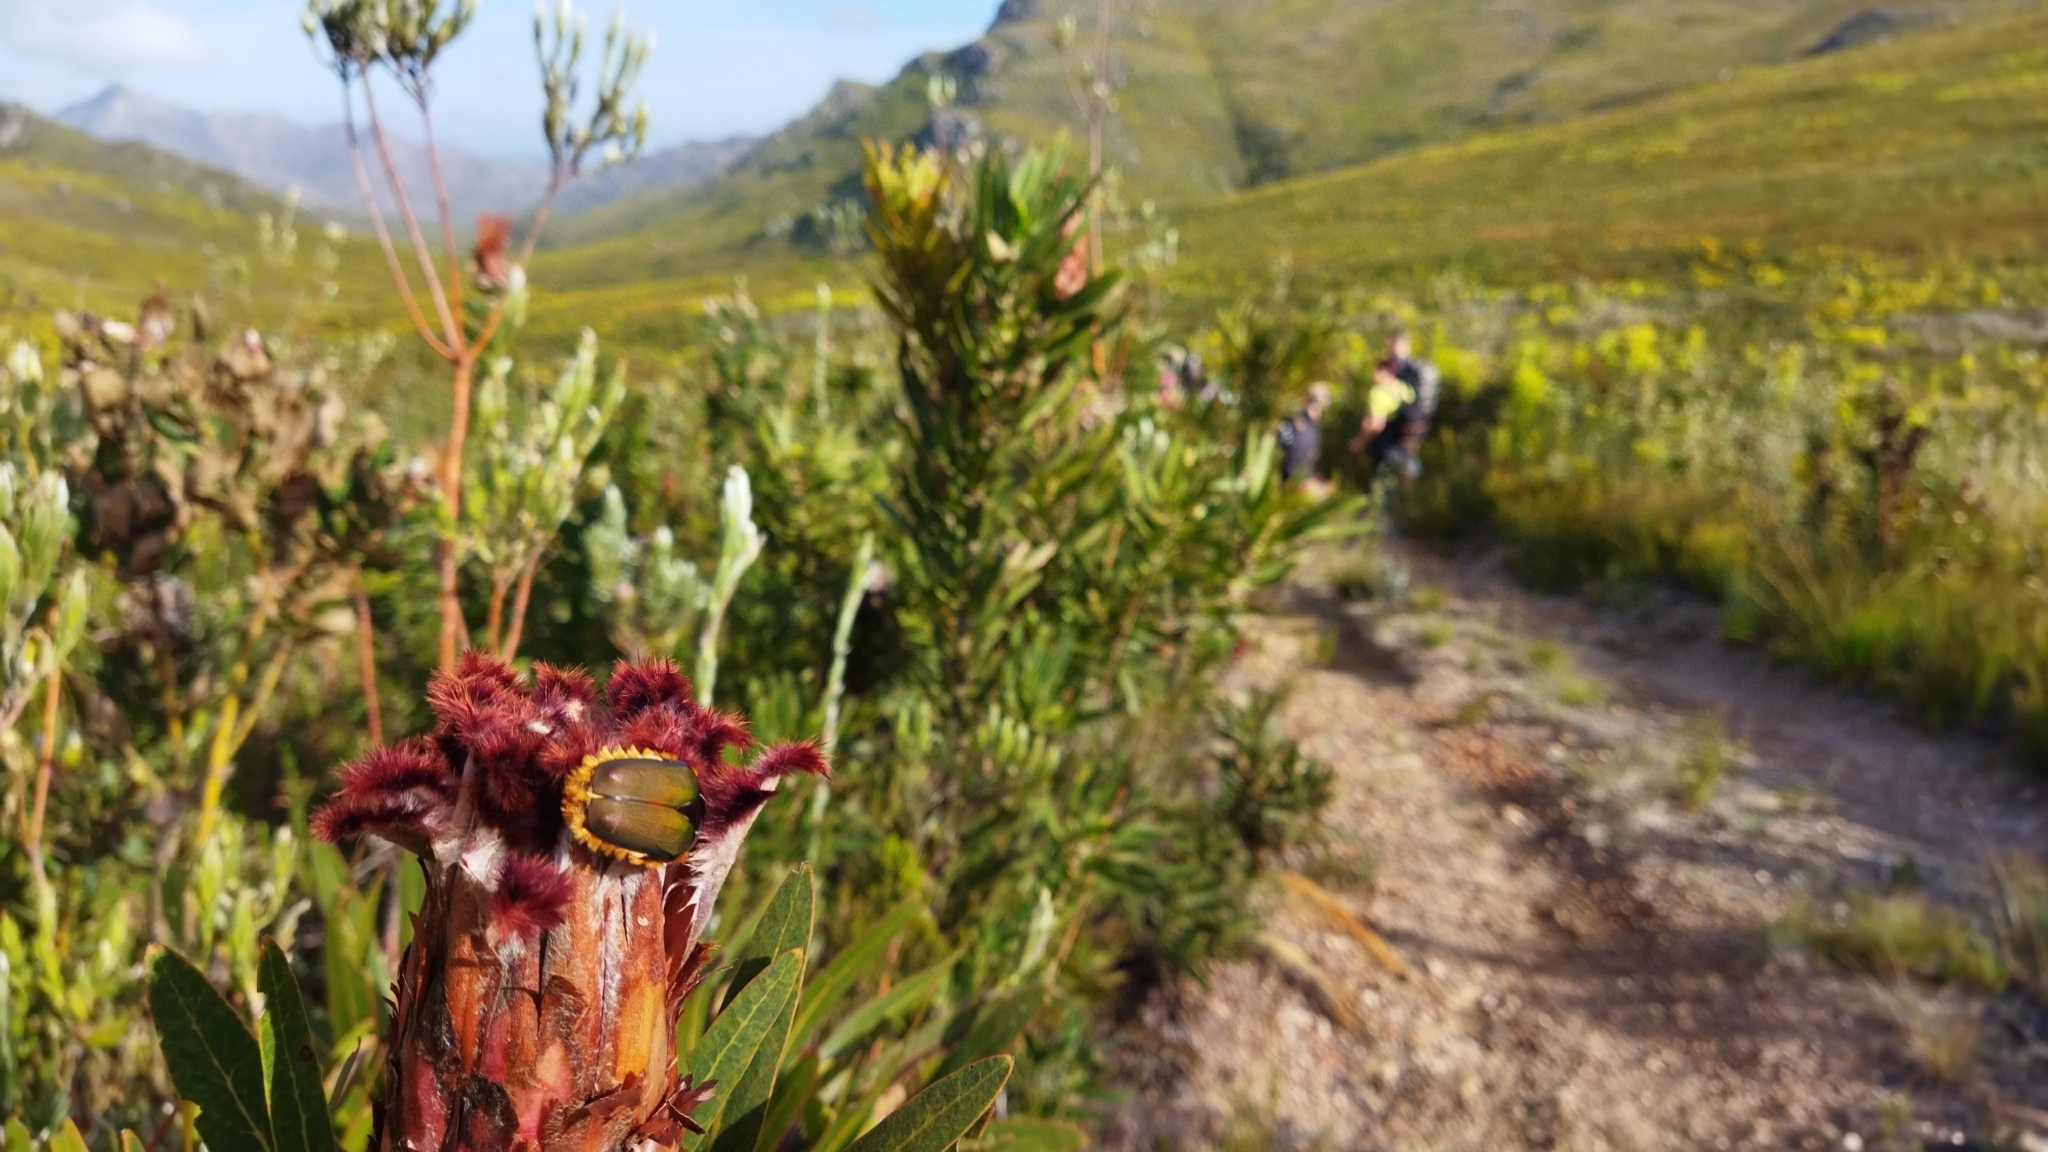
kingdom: Animalia
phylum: Arthropoda
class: Insecta
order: Coleoptera
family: Scarabaeidae
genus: Trichostetha
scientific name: Trichostetha fascicularis
